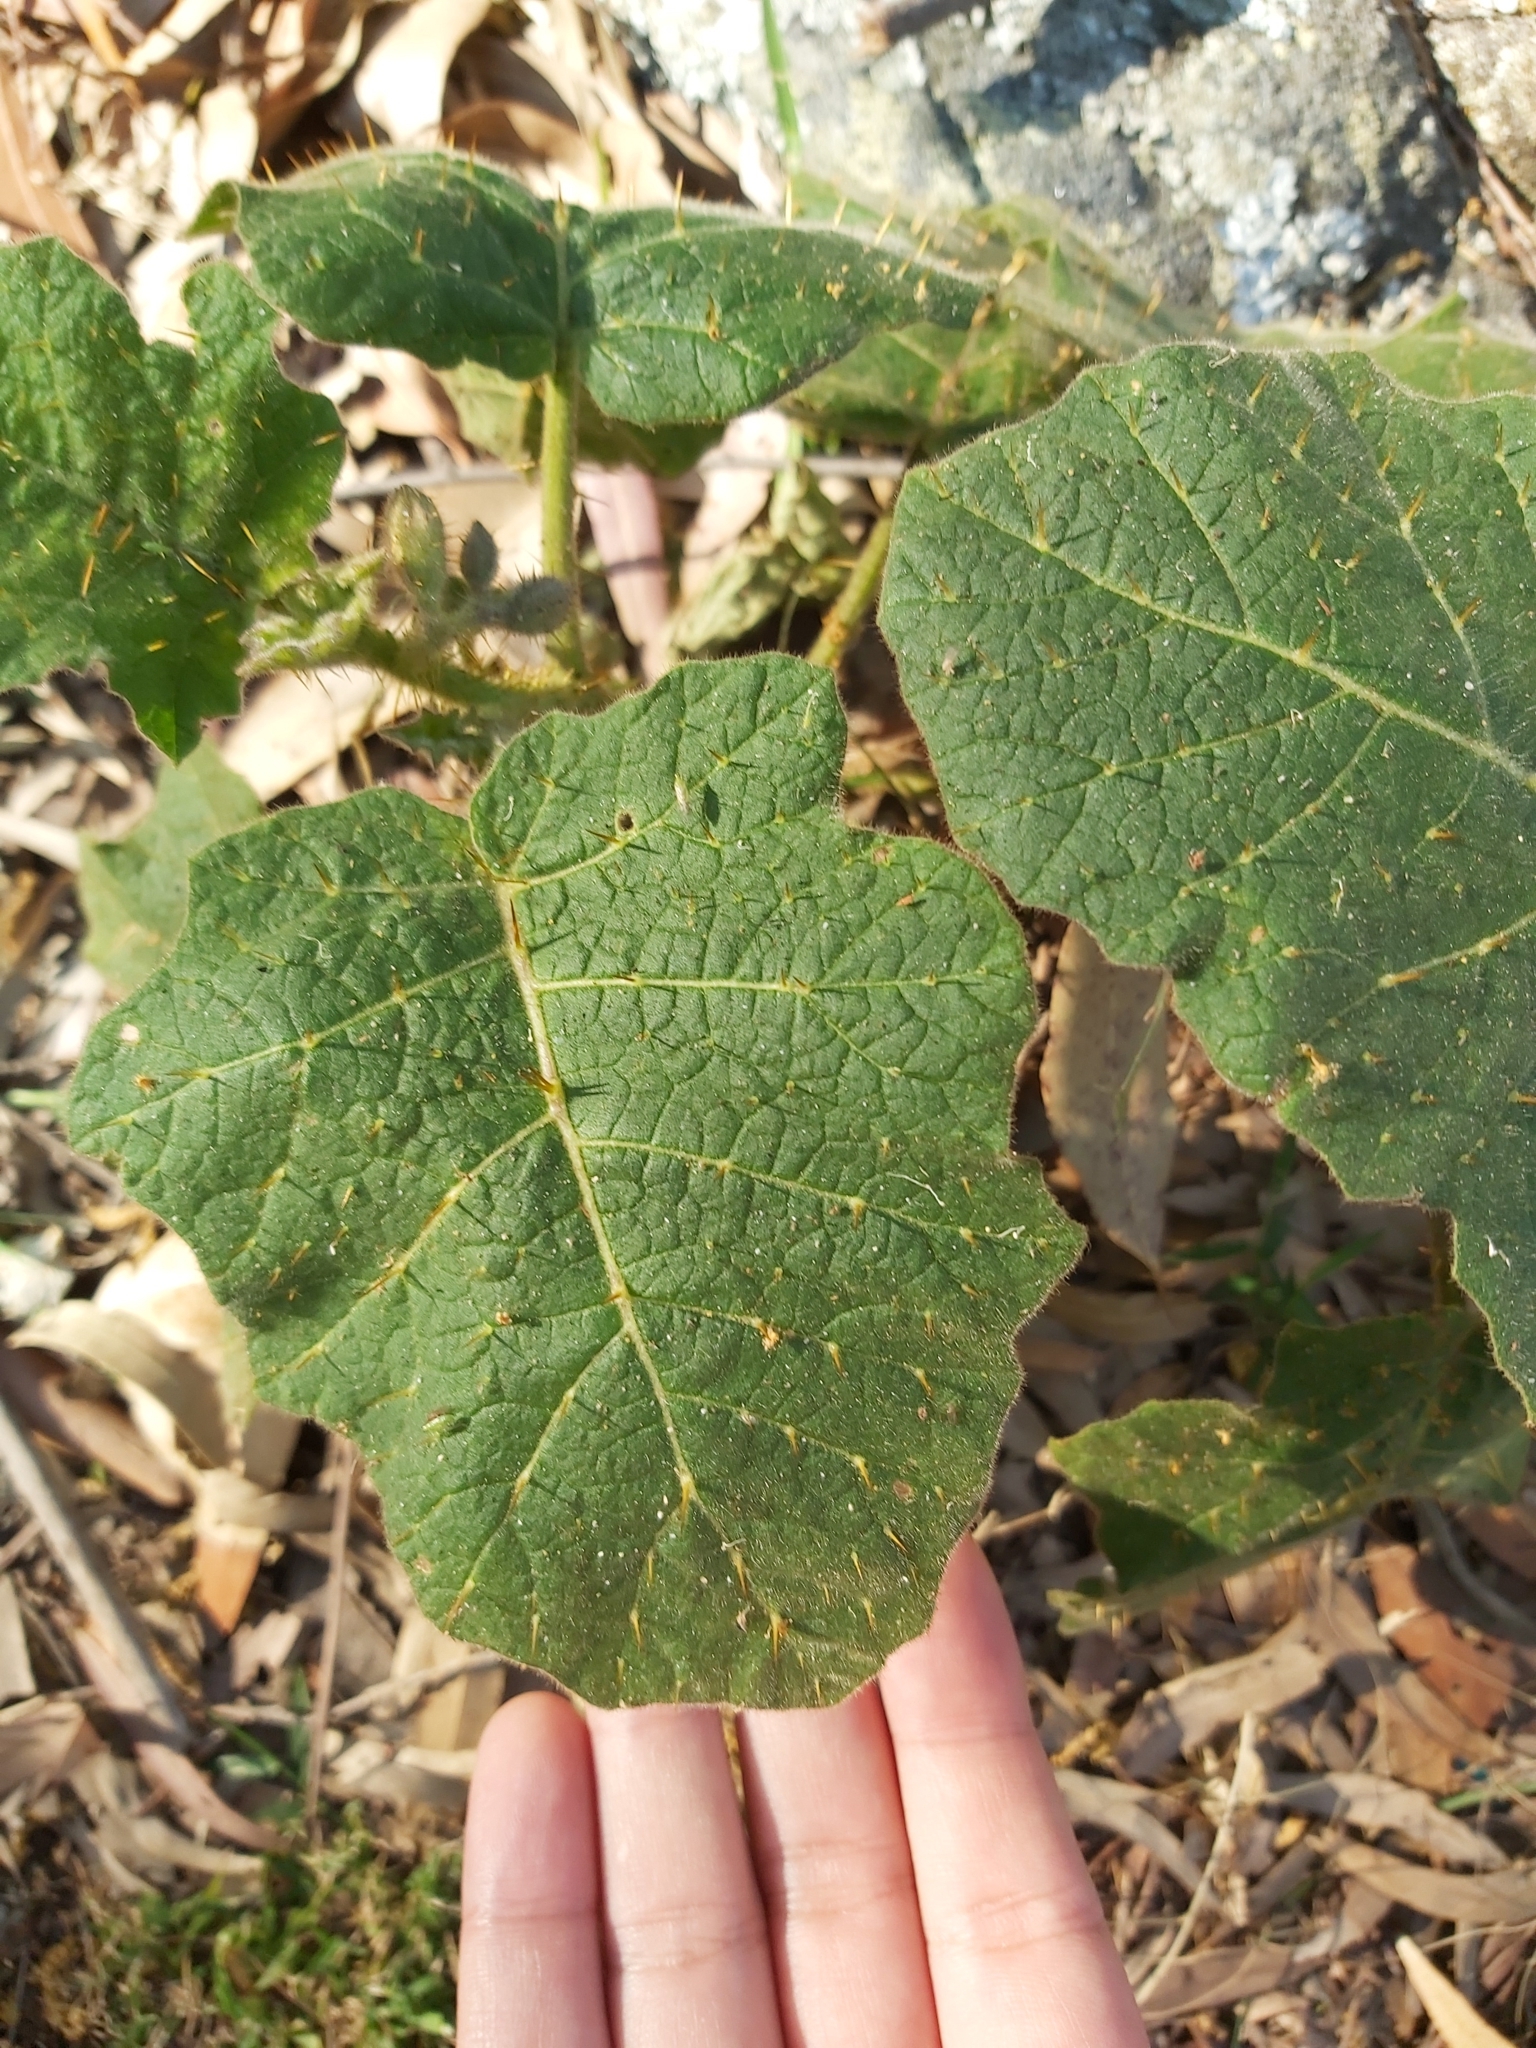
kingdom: Plantae
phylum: Tracheophyta
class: Magnoliopsida
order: Solanales
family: Solanaceae
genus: Solanum
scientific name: Solanum campanulatum
